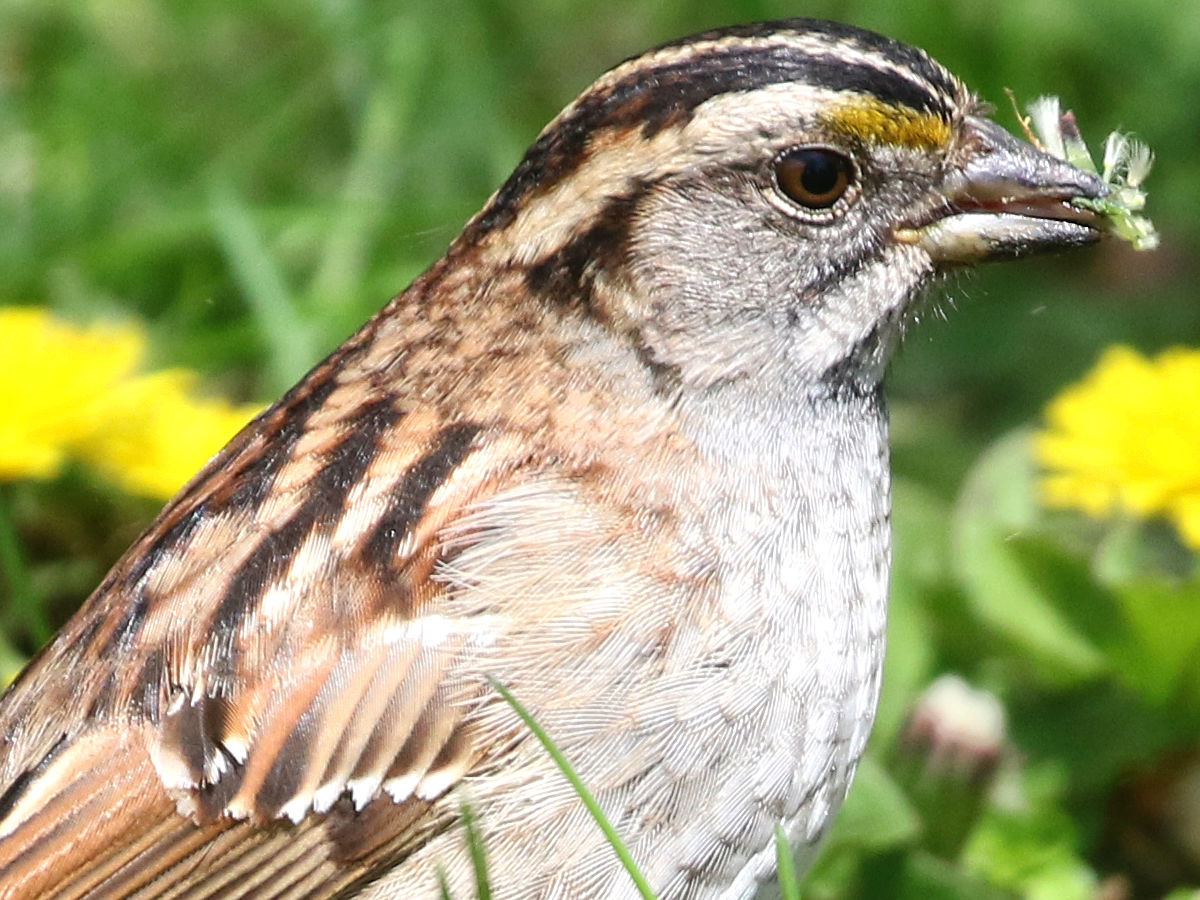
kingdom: Animalia
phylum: Chordata
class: Aves
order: Passeriformes
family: Passerellidae
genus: Zonotrichia
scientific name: Zonotrichia albicollis
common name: White-throated sparrow
